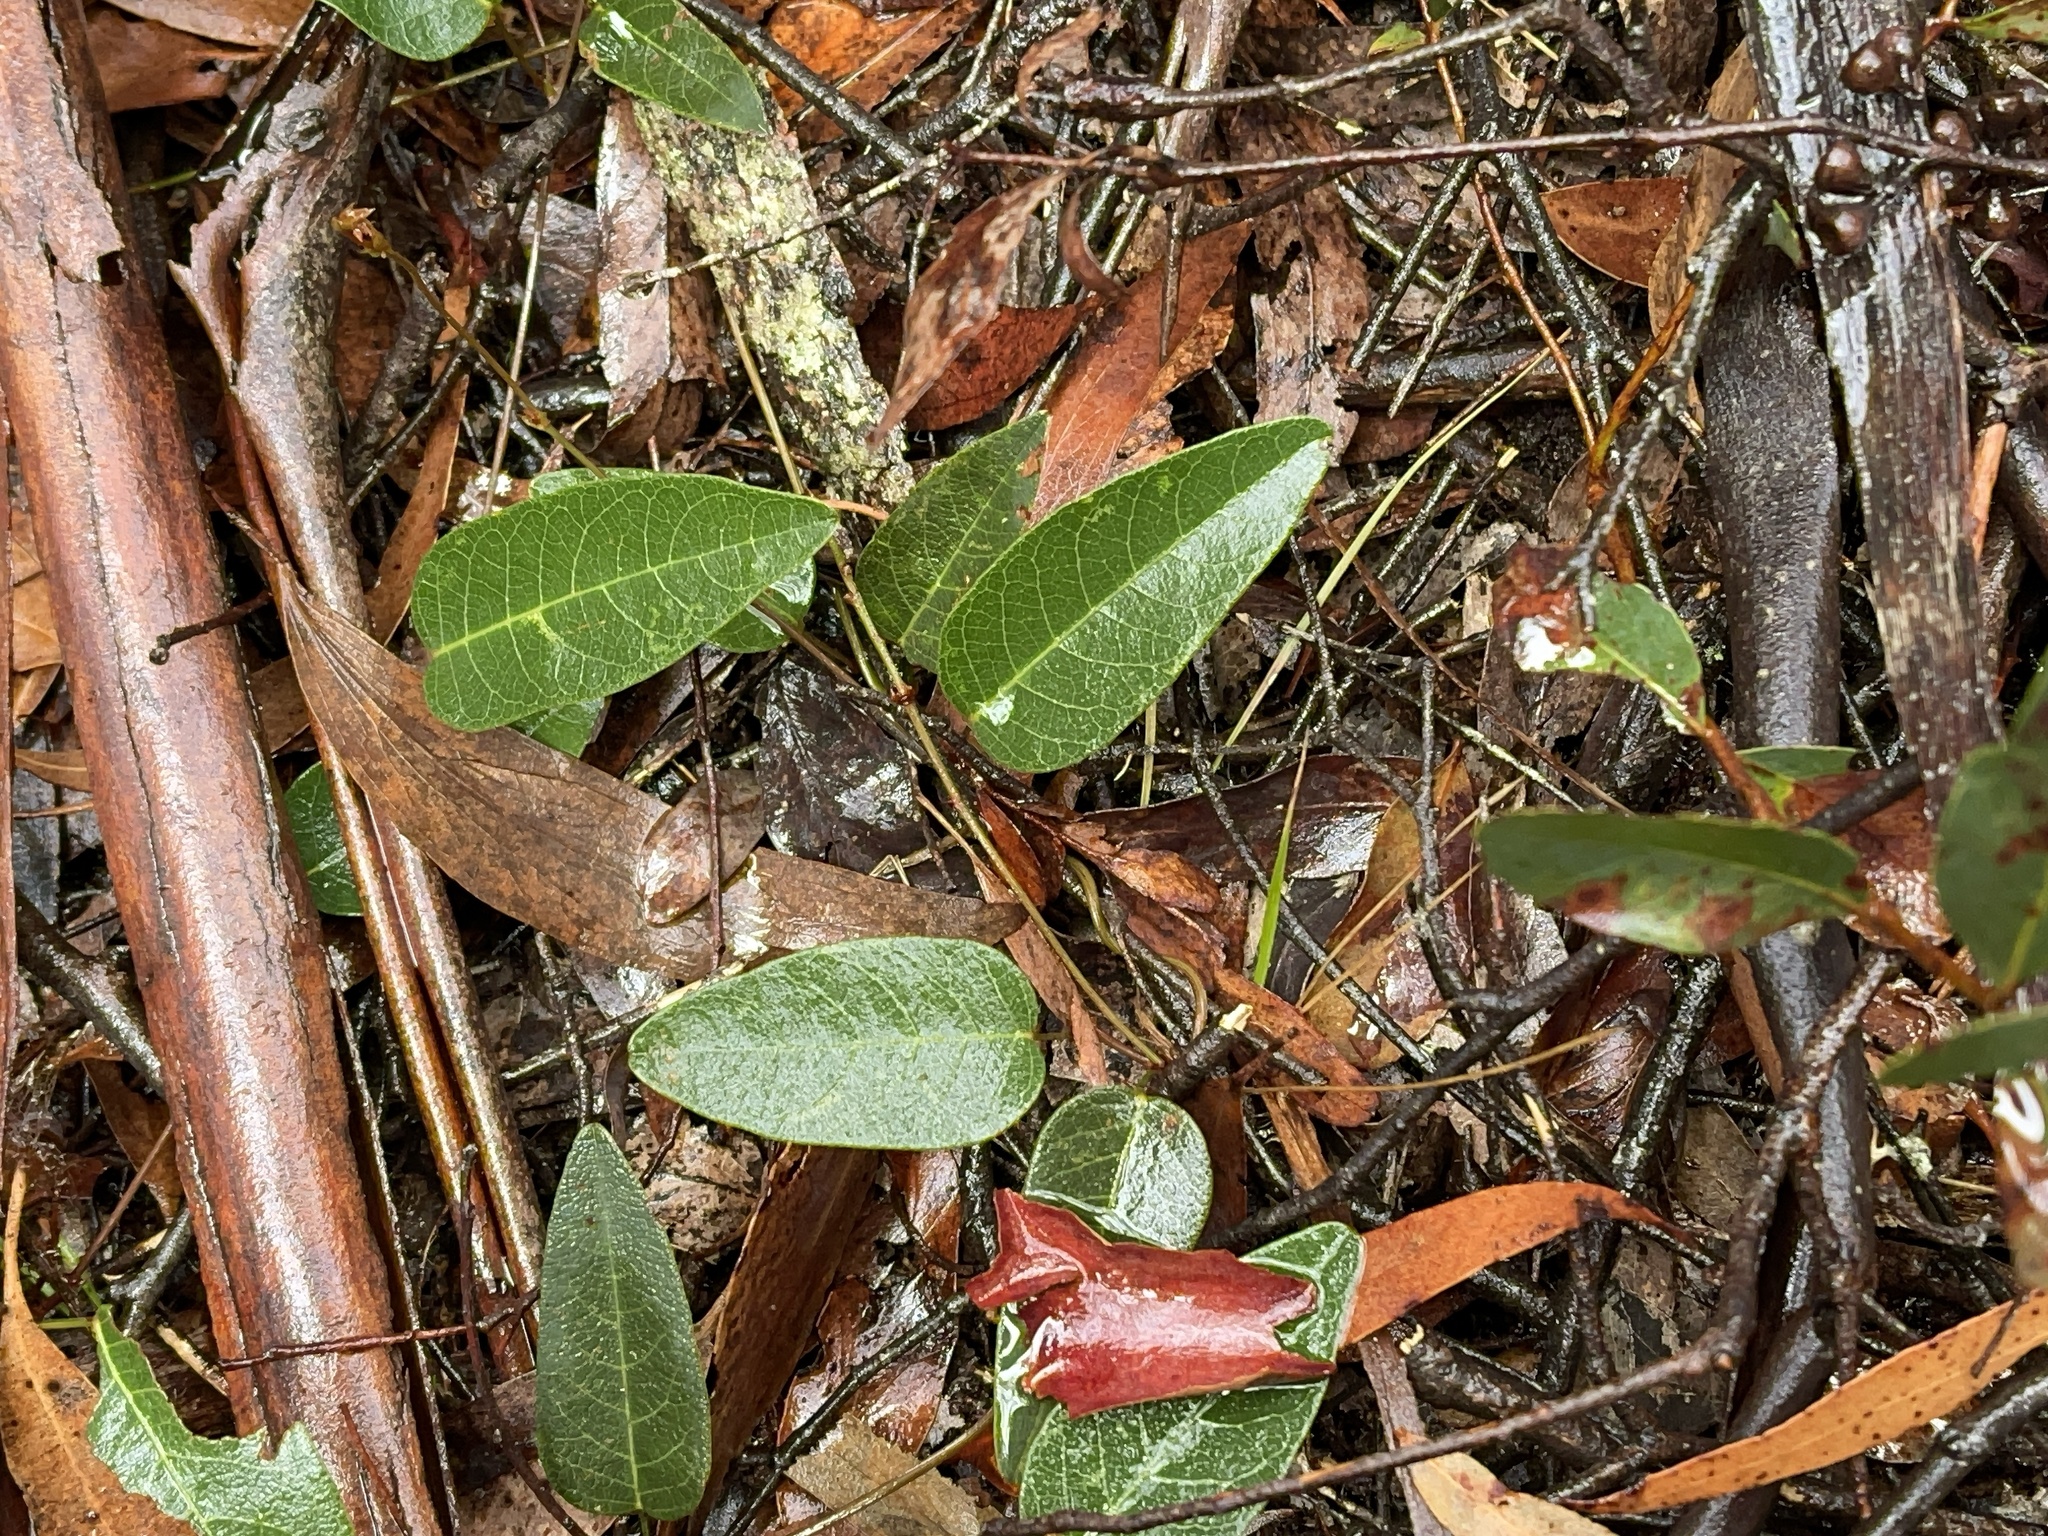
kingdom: Plantae
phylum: Tracheophyta
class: Magnoliopsida
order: Fabales
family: Fabaceae
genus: Hardenbergia
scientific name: Hardenbergia violacea
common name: Coral-pea
